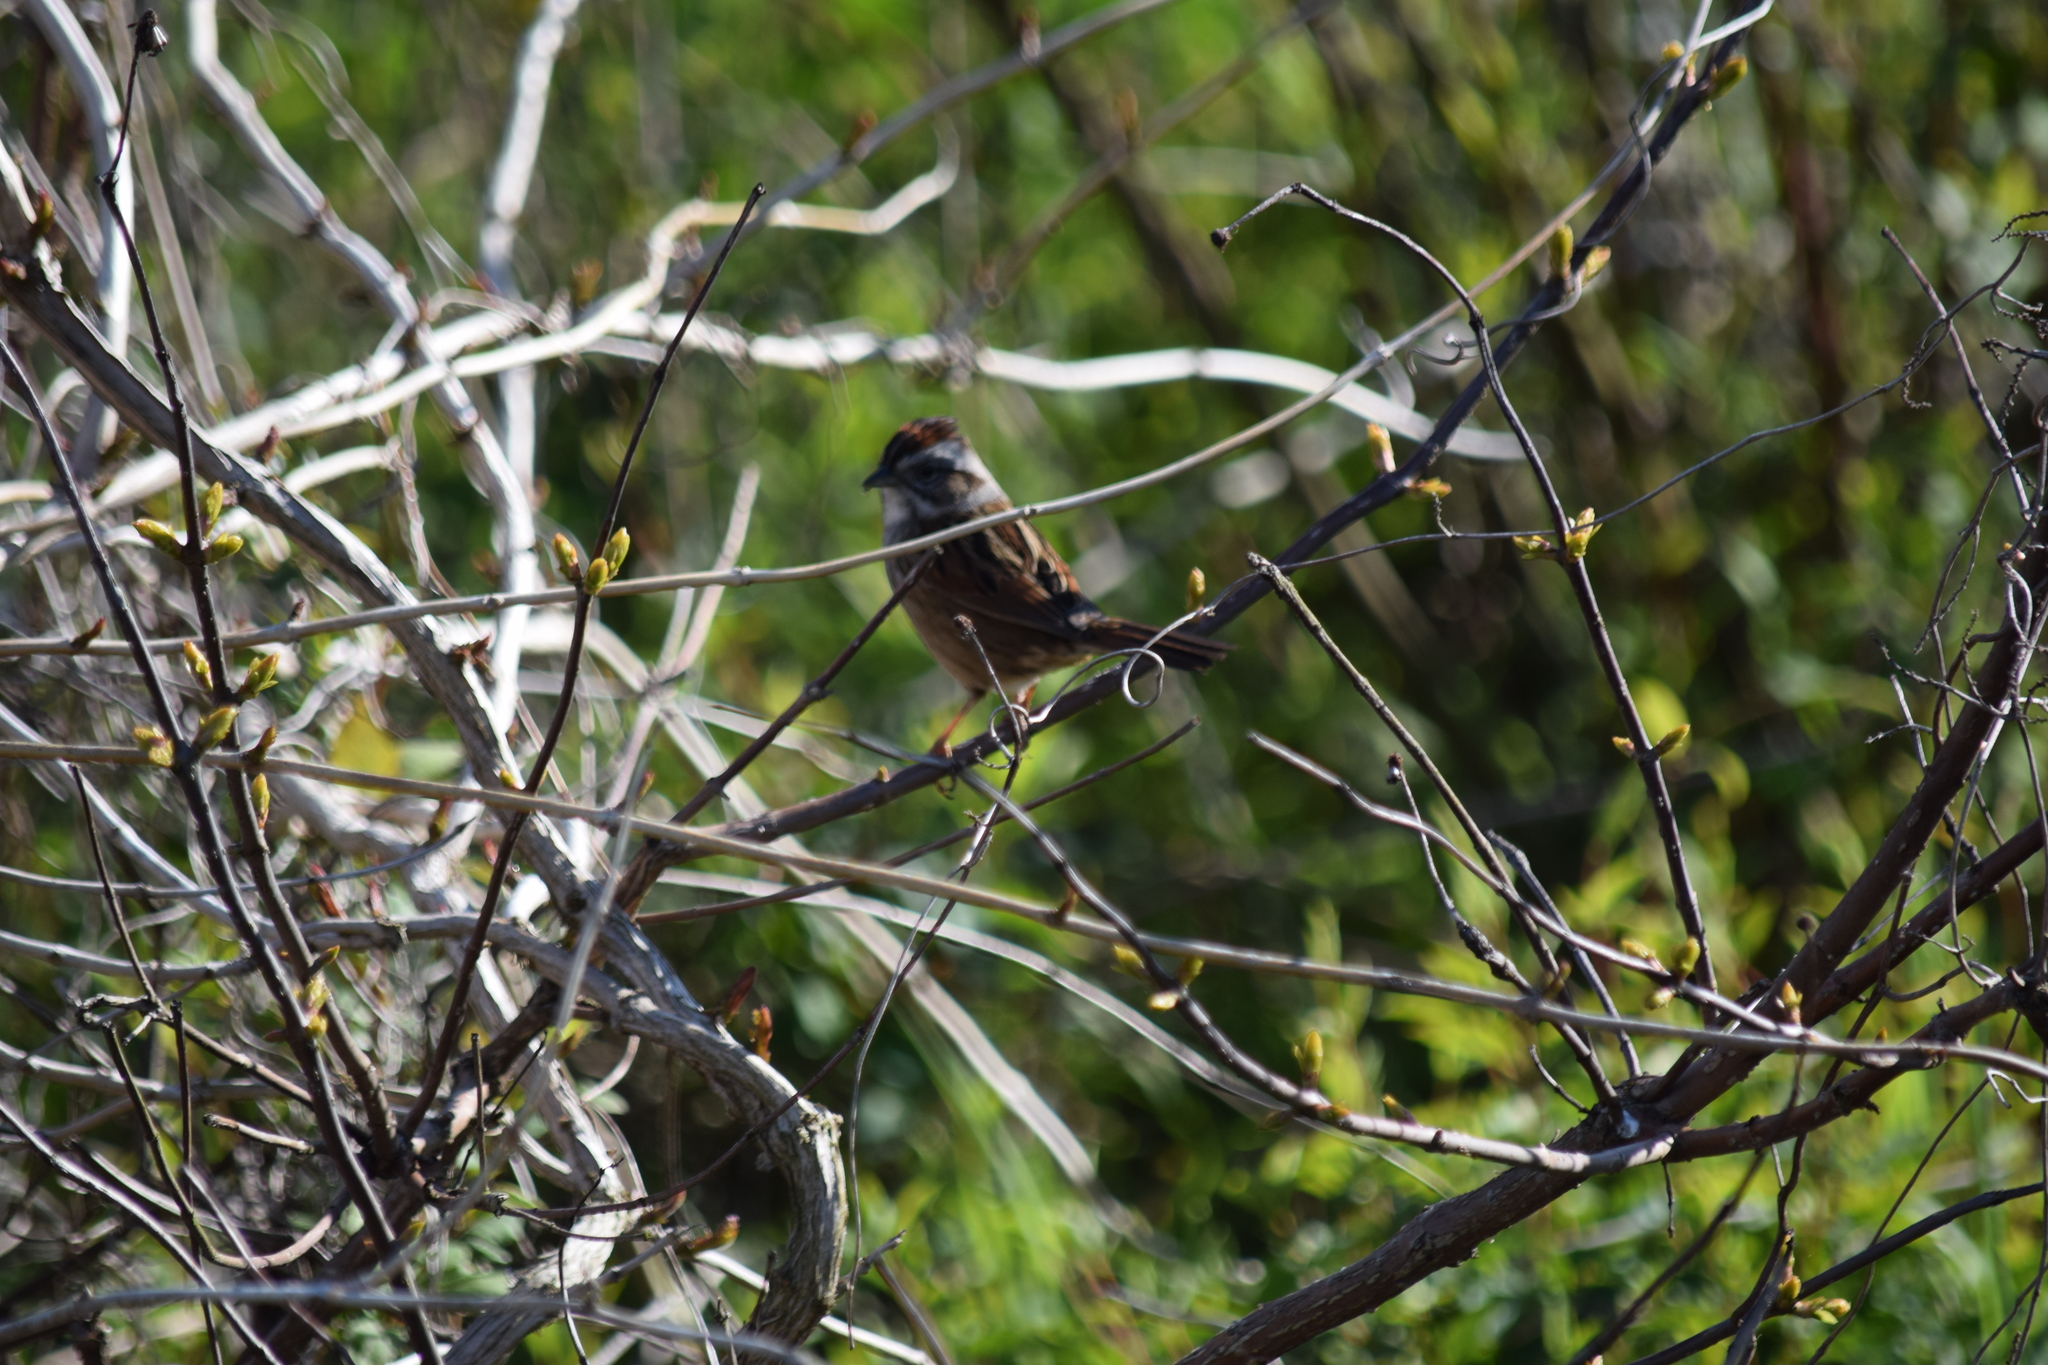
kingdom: Animalia
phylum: Chordata
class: Aves
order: Passeriformes
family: Passerellidae
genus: Melospiza
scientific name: Melospiza georgiana
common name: Swamp sparrow
